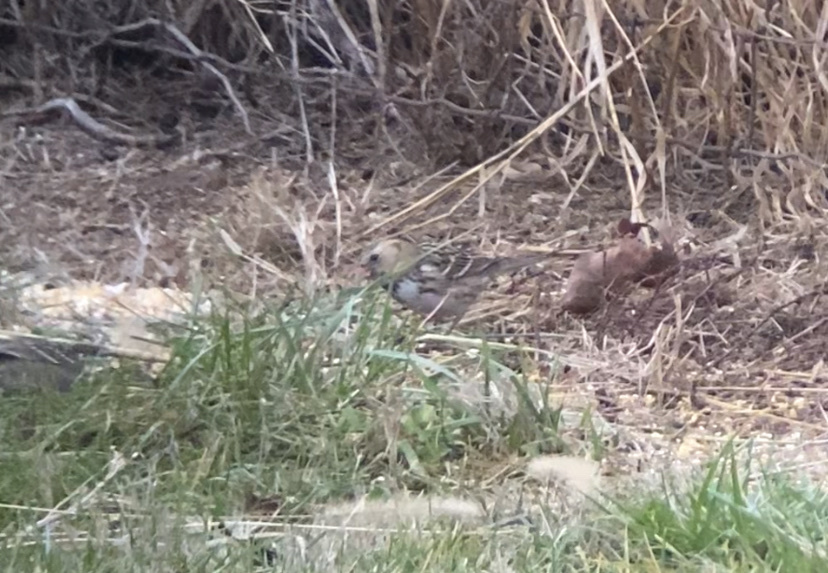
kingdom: Animalia
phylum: Chordata
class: Aves
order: Passeriformes
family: Passerellidae
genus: Zonotrichia
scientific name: Zonotrichia querula
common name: Harris's sparrow
